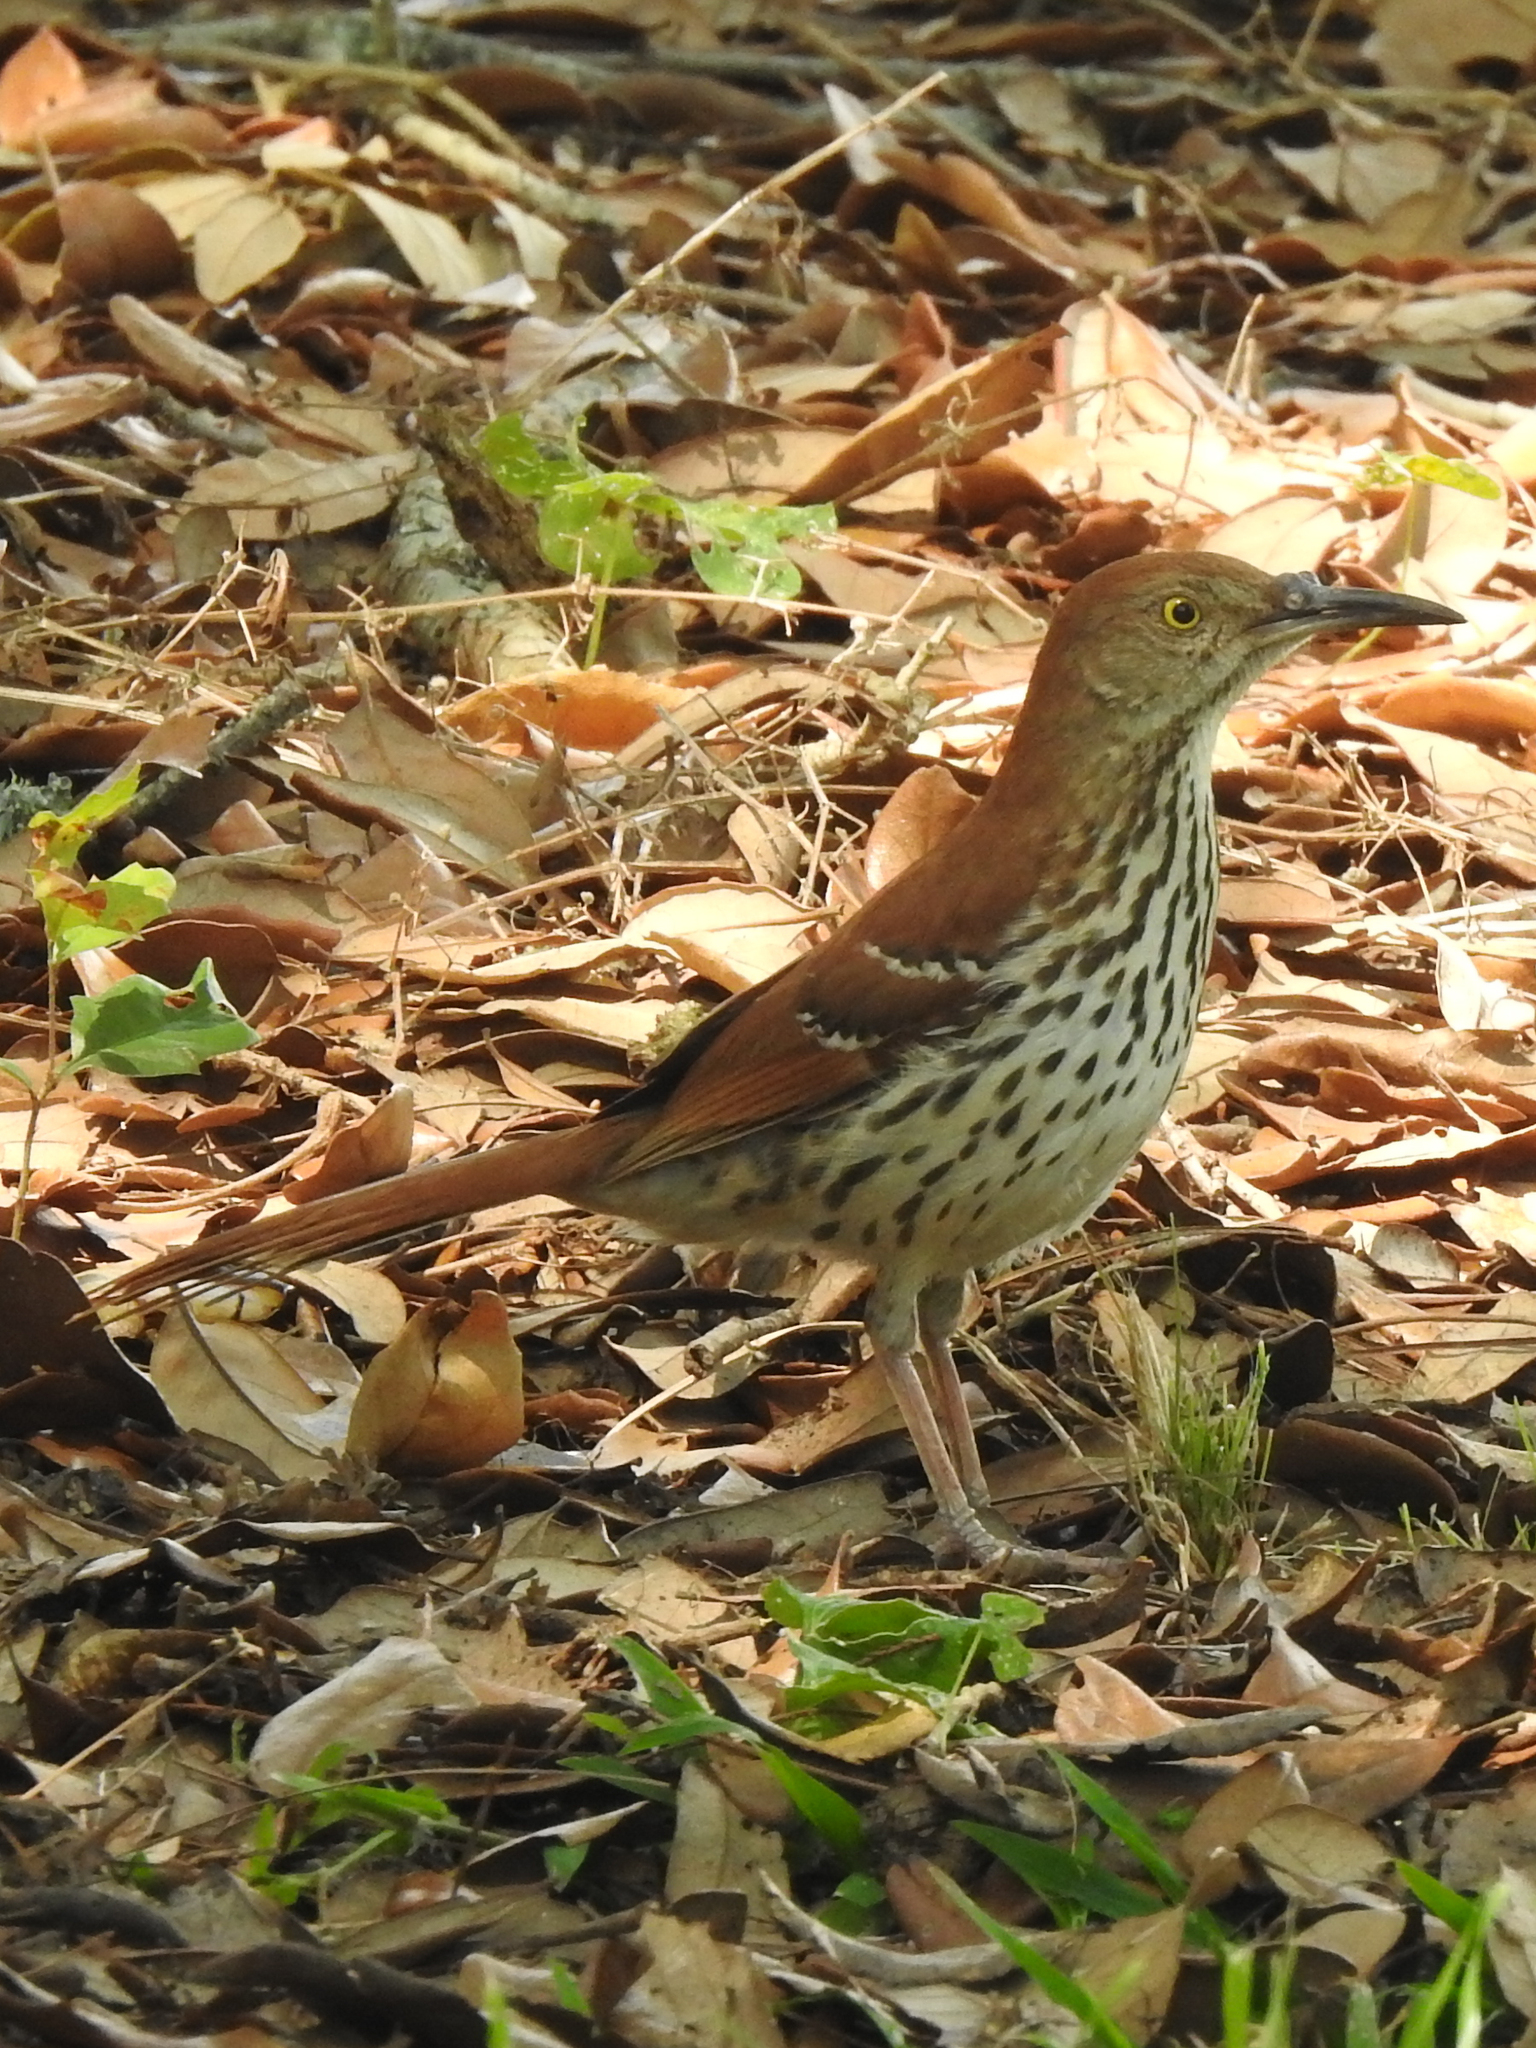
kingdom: Animalia
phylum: Chordata
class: Aves
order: Passeriformes
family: Mimidae
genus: Toxostoma
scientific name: Toxostoma rufum
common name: Brown thrasher
